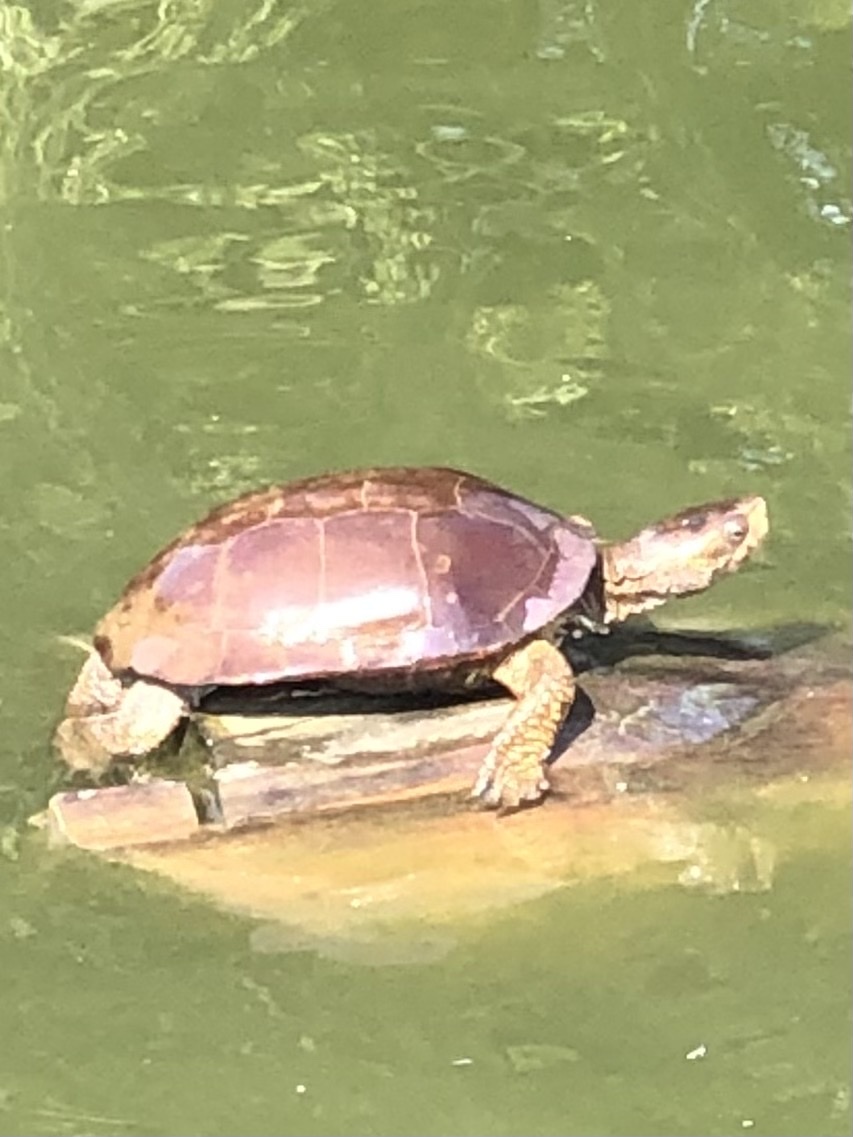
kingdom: Animalia
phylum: Chordata
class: Testudines
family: Emydidae
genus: Actinemys
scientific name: Actinemys marmorata
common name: Western pond turtle
